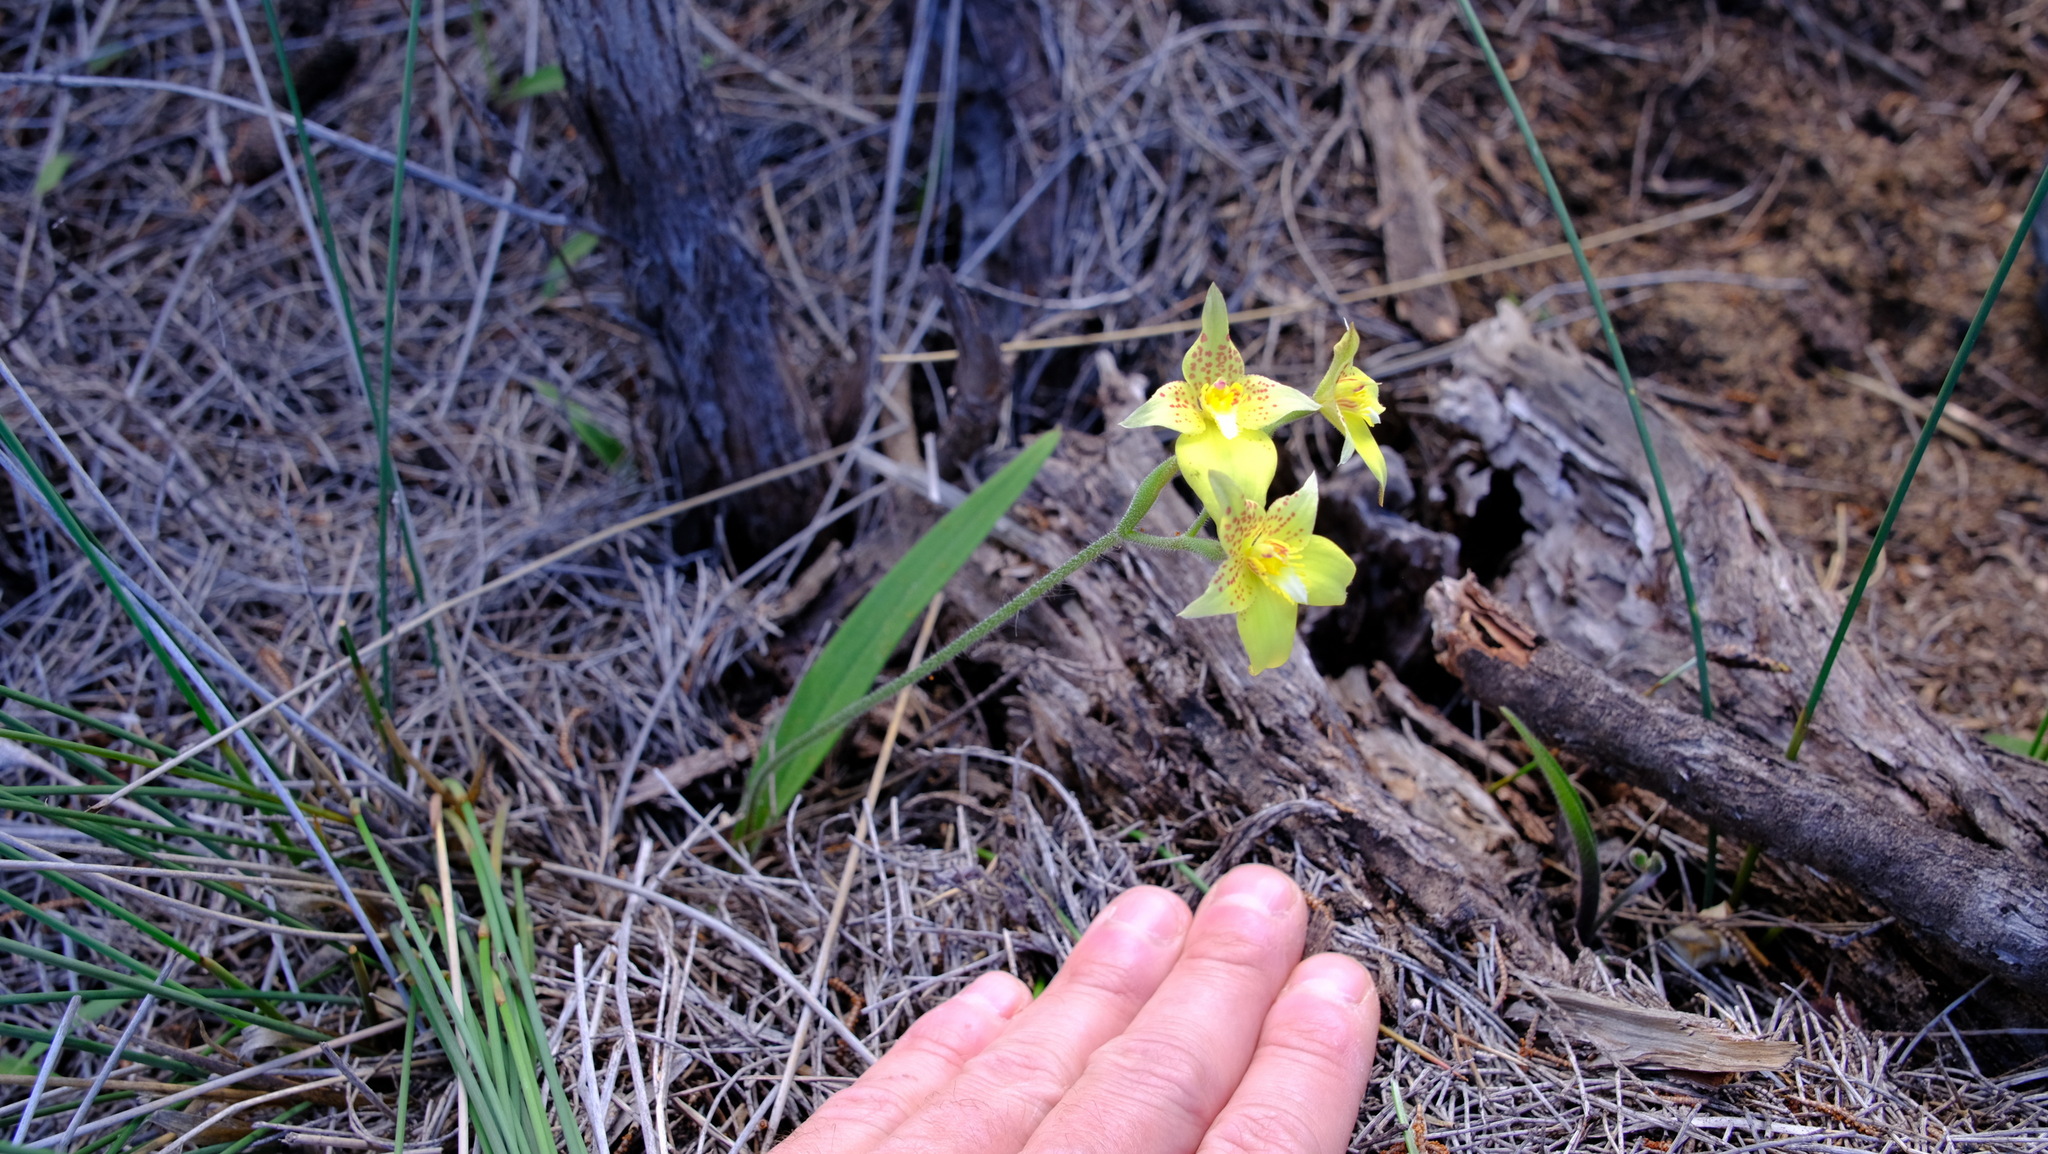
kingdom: Plantae
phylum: Tracheophyta
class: Liliopsida
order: Asparagales
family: Orchidaceae
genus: Caladenia
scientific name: Caladenia flava
